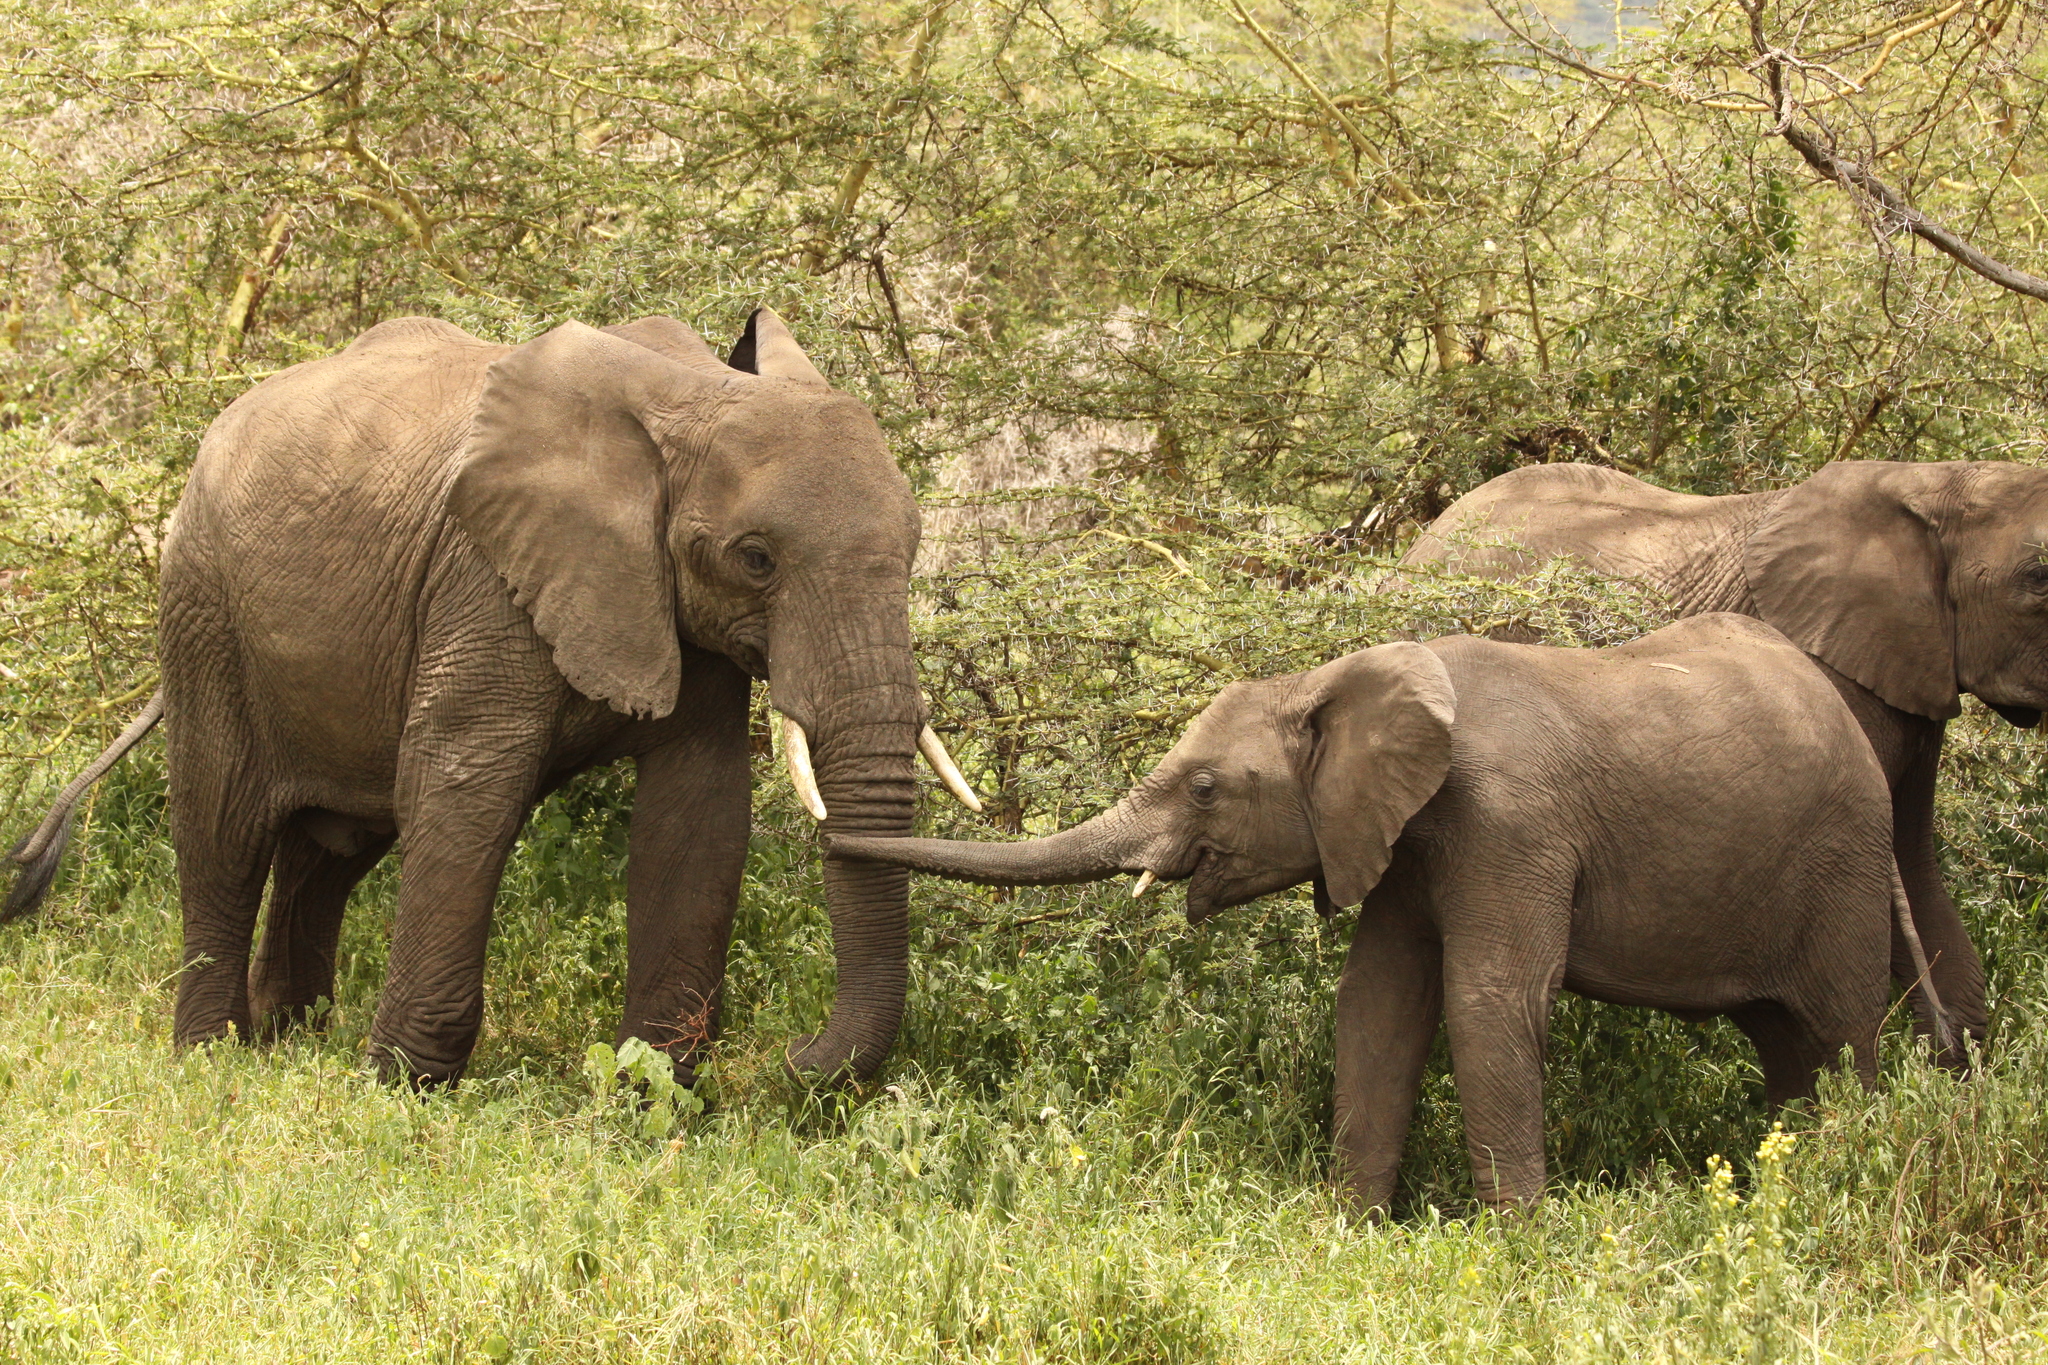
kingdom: Animalia
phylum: Chordata
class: Mammalia
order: Proboscidea
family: Elephantidae
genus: Loxodonta
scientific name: Loxodonta africana
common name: African elephant
